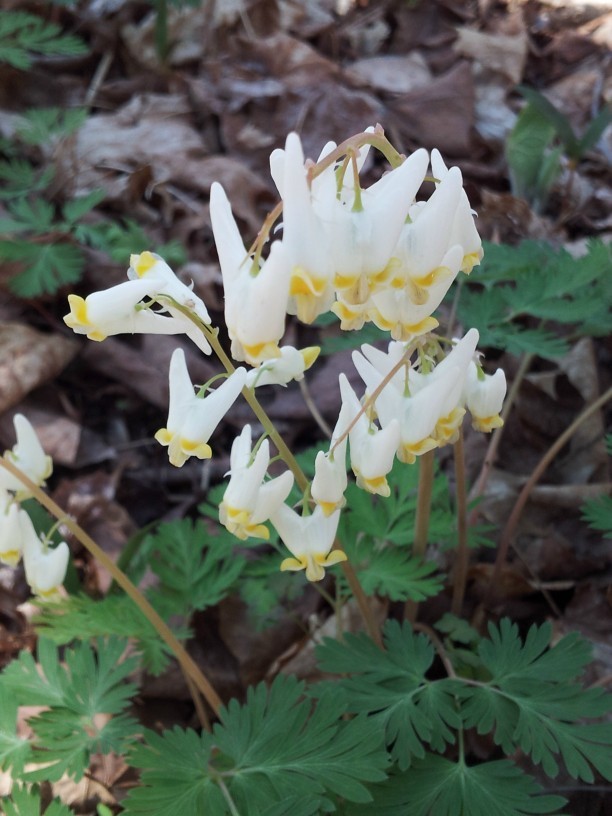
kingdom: Plantae
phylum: Tracheophyta
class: Magnoliopsida
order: Ranunculales
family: Papaveraceae
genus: Dicentra
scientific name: Dicentra cucullaria
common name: Dutchman's breeches
